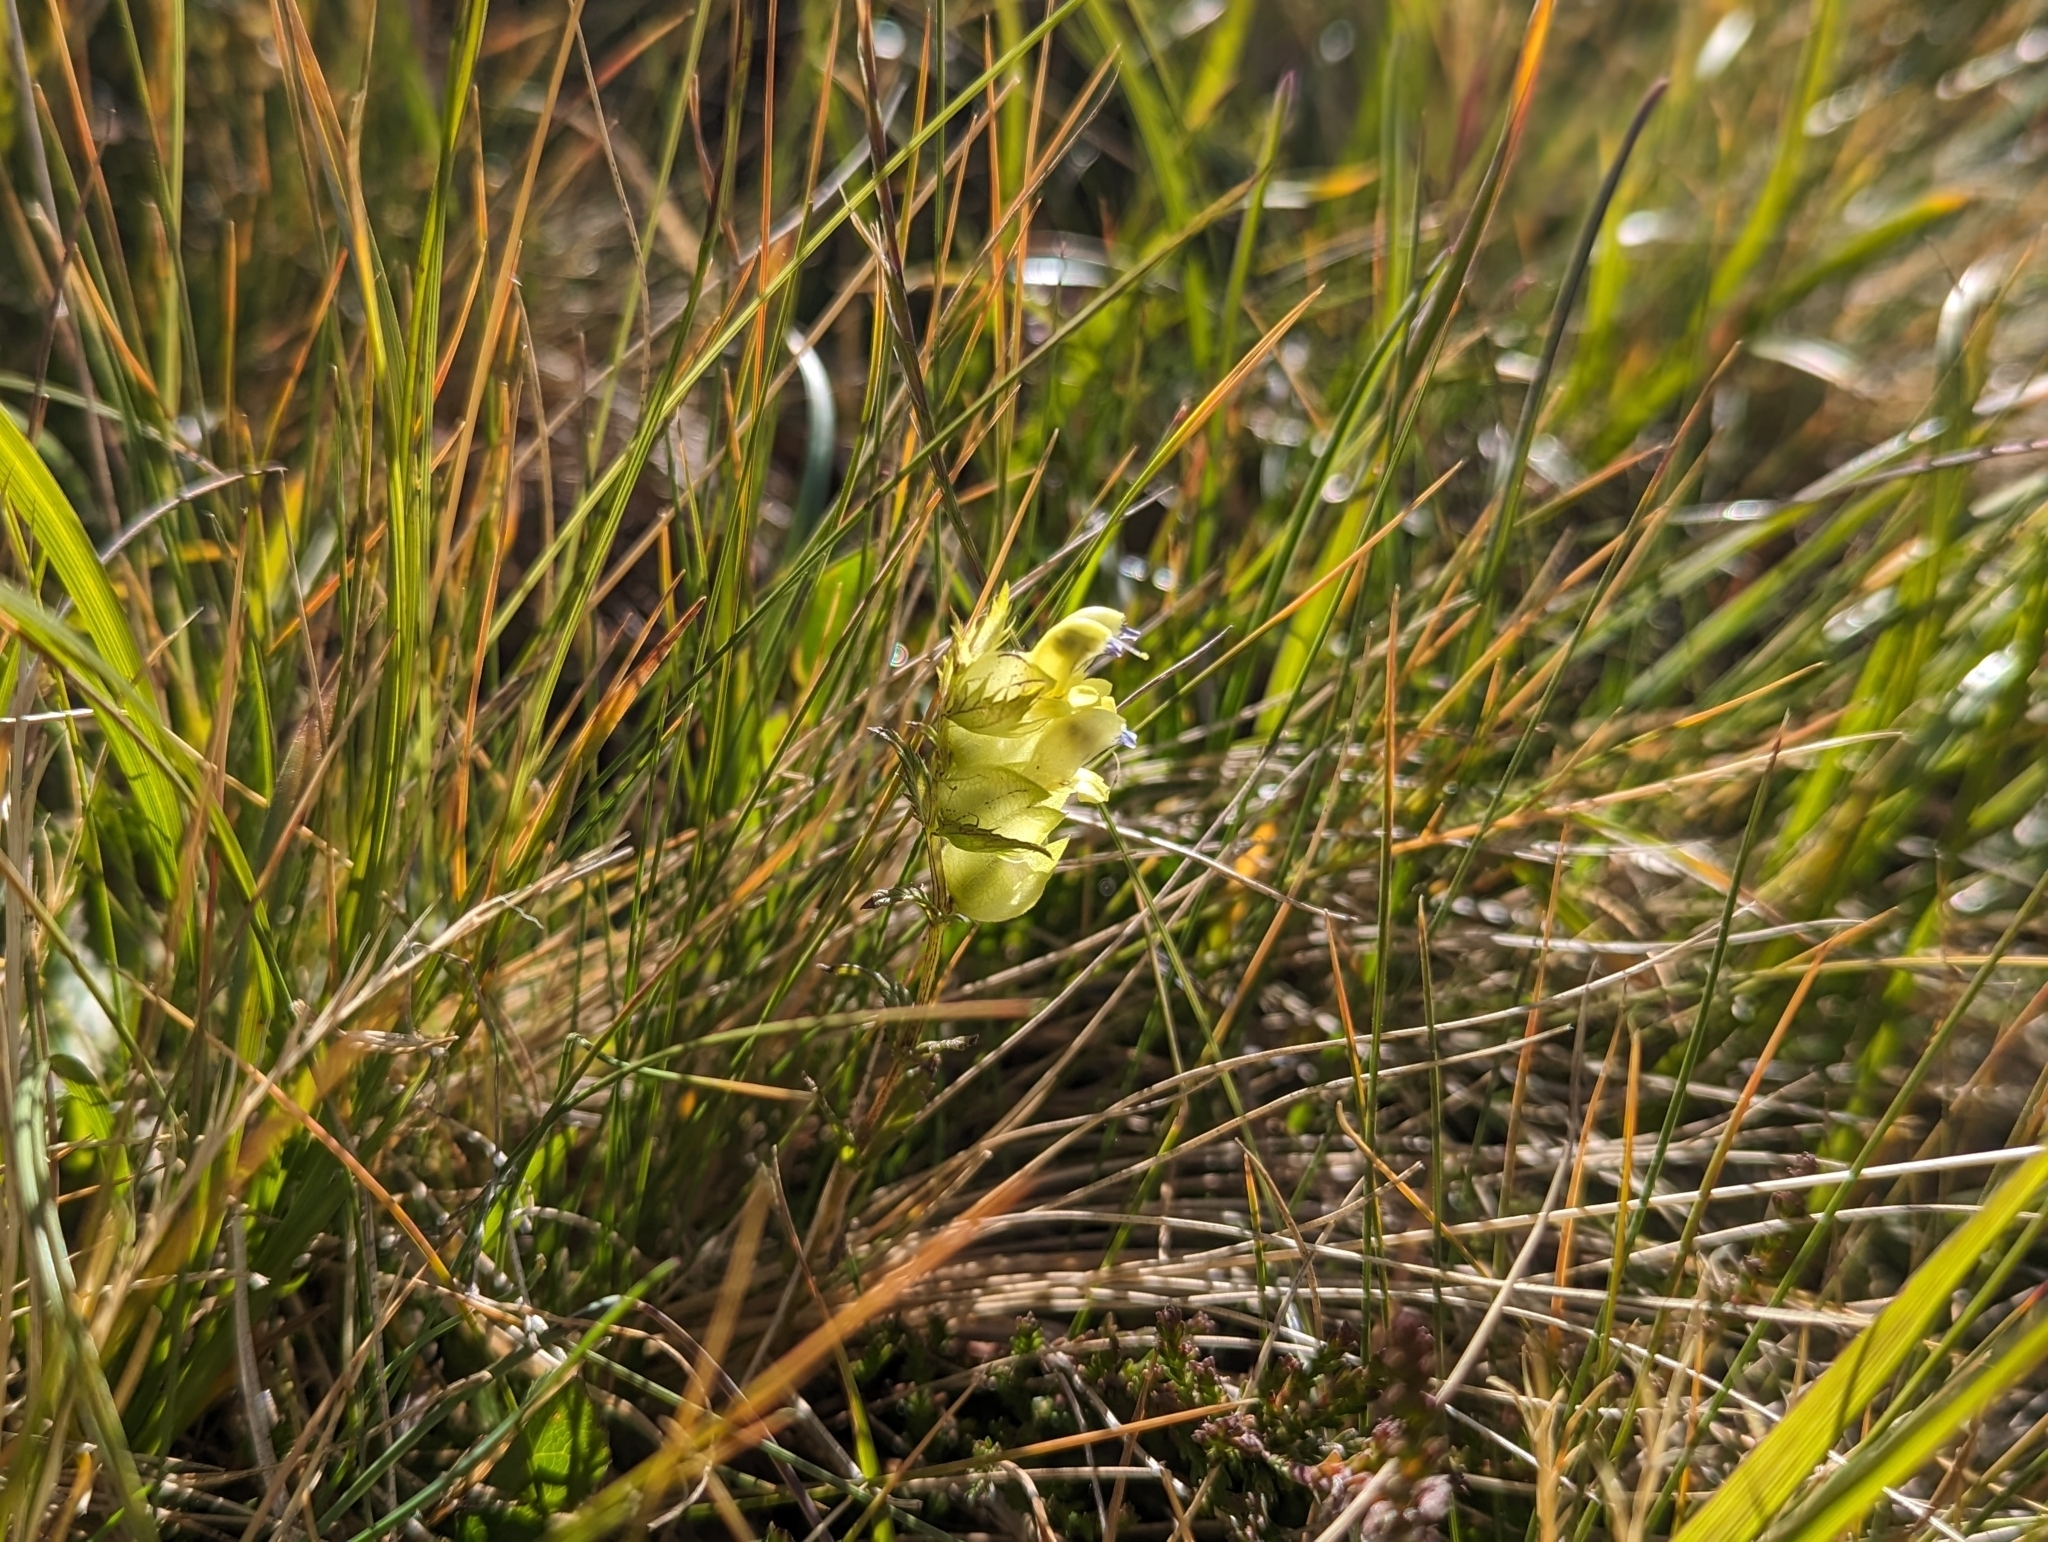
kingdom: Plantae
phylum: Tracheophyta
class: Magnoliopsida
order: Lamiales
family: Orobanchaceae
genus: Rhinanthus
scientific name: Rhinanthus glacialis
